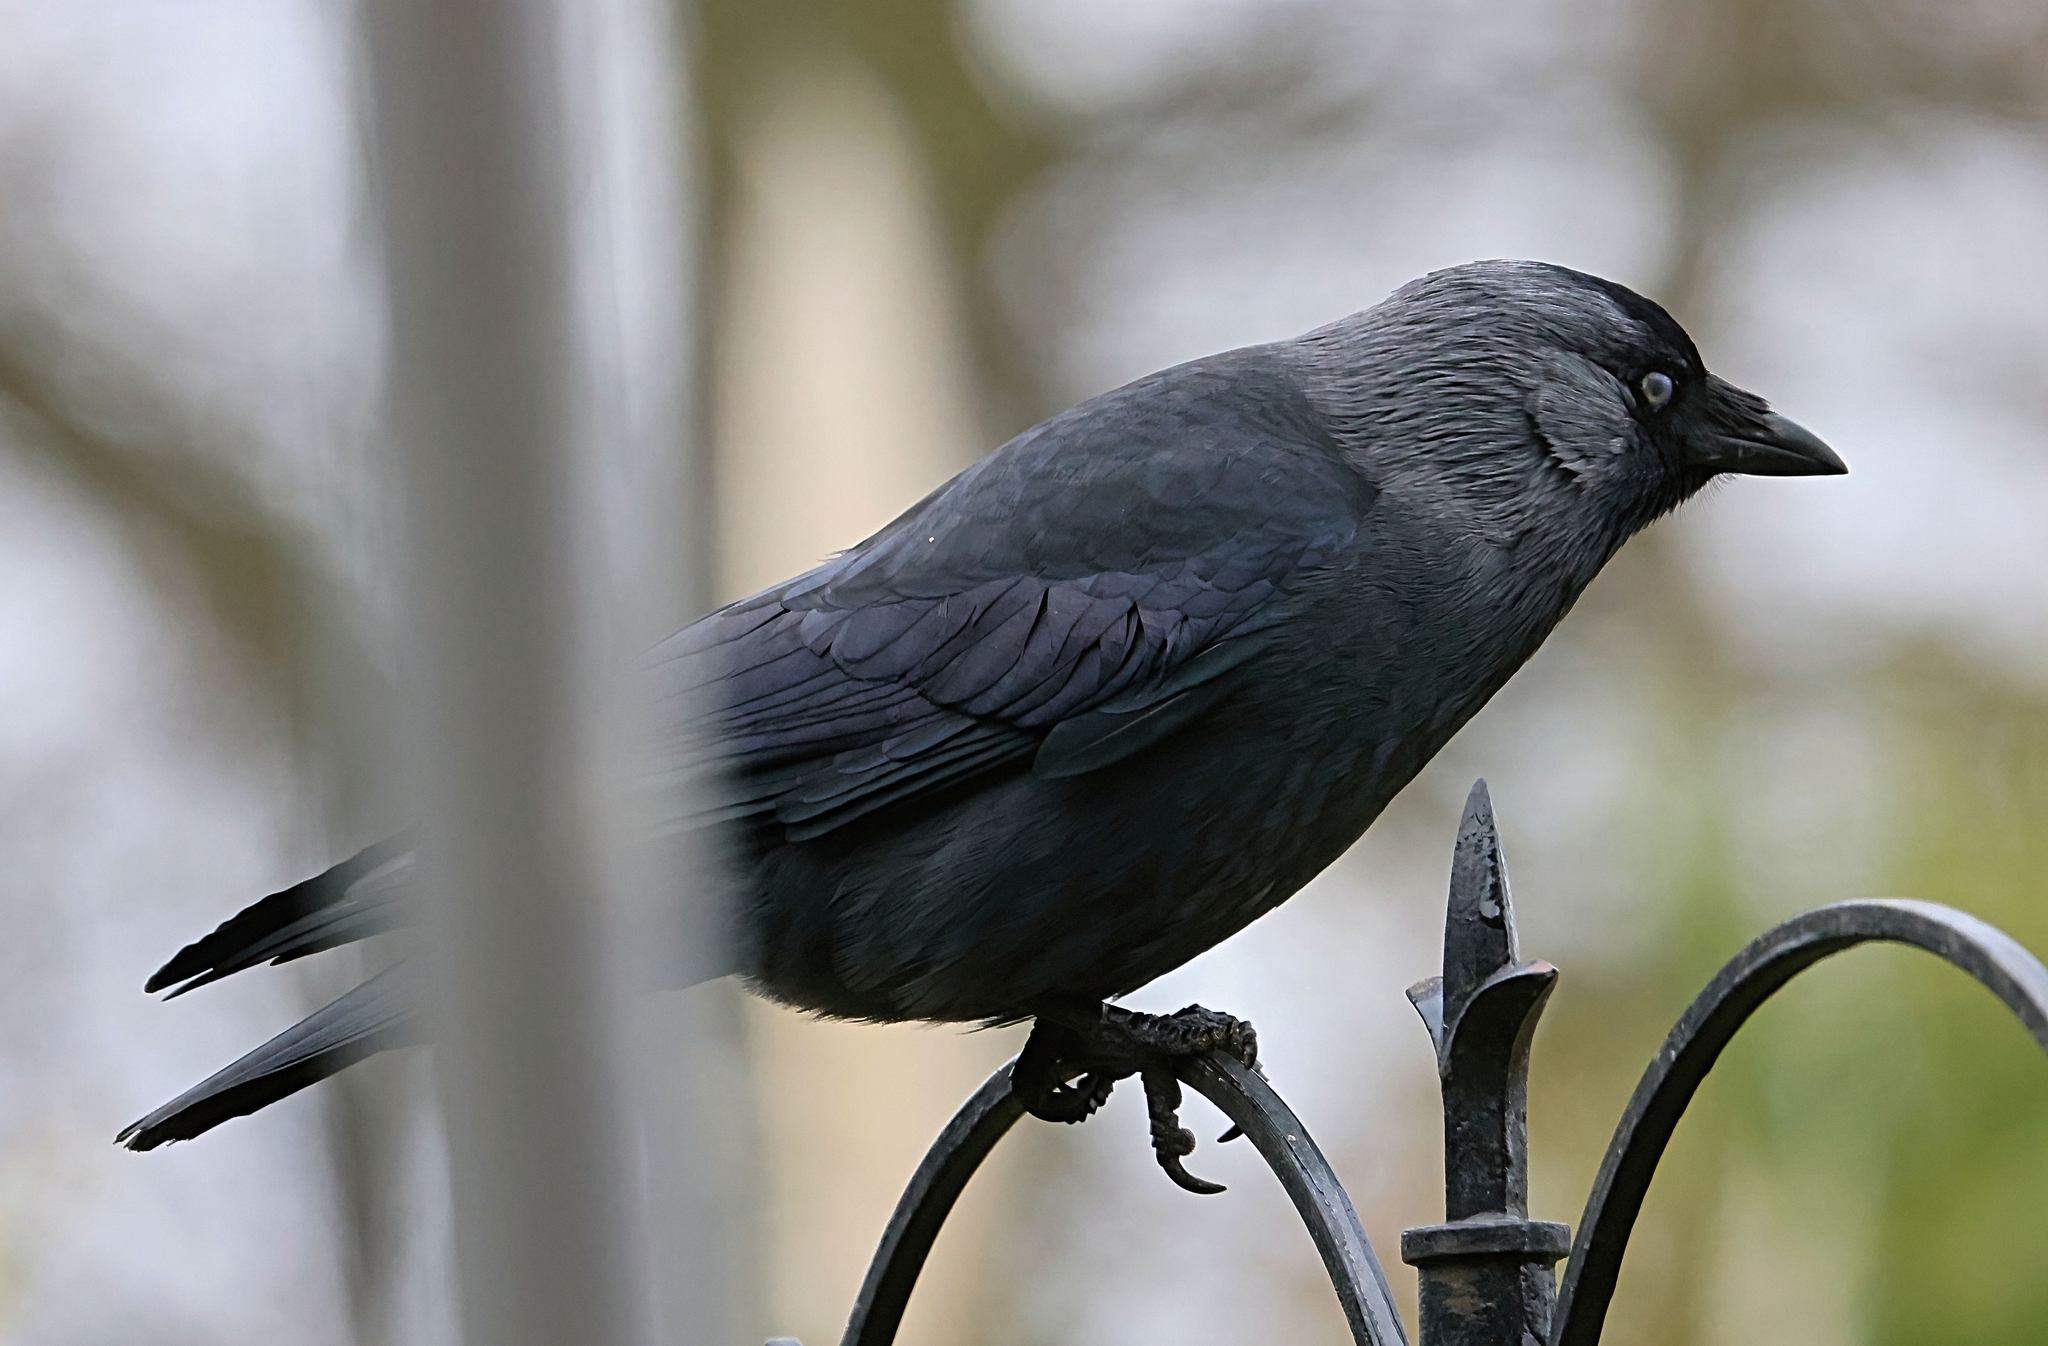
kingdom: Animalia
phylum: Chordata
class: Aves
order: Passeriformes
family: Corvidae
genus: Coloeus
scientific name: Coloeus monedula
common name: Western jackdaw
